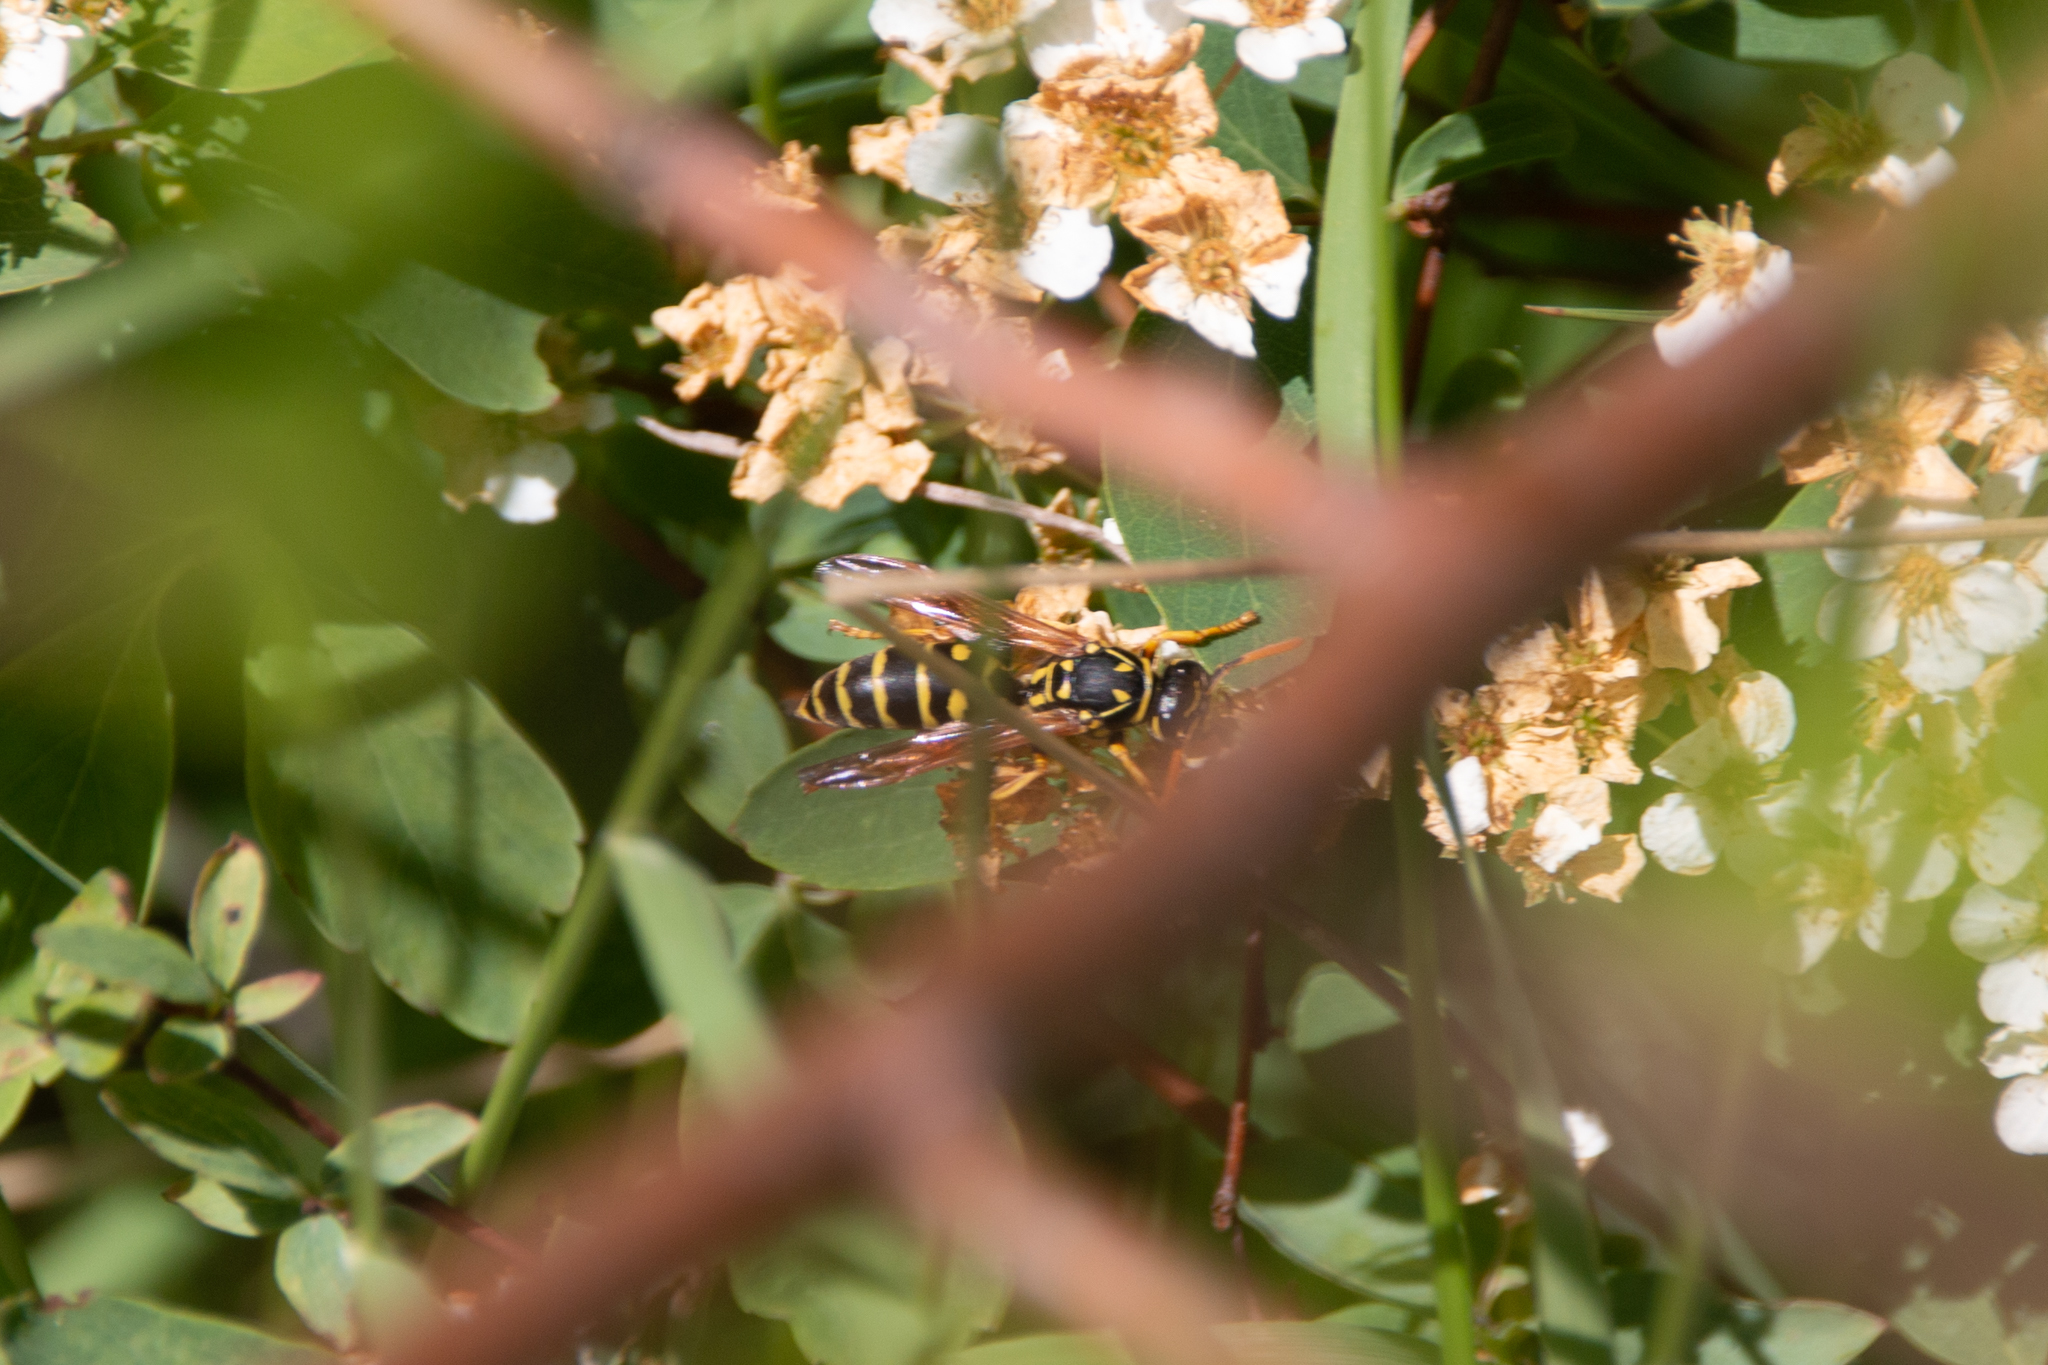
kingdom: Animalia
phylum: Arthropoda
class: Insecta
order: Hymenoptera
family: Eumenidae
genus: Polistes
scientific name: Polistes dominula
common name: Paper wasp
